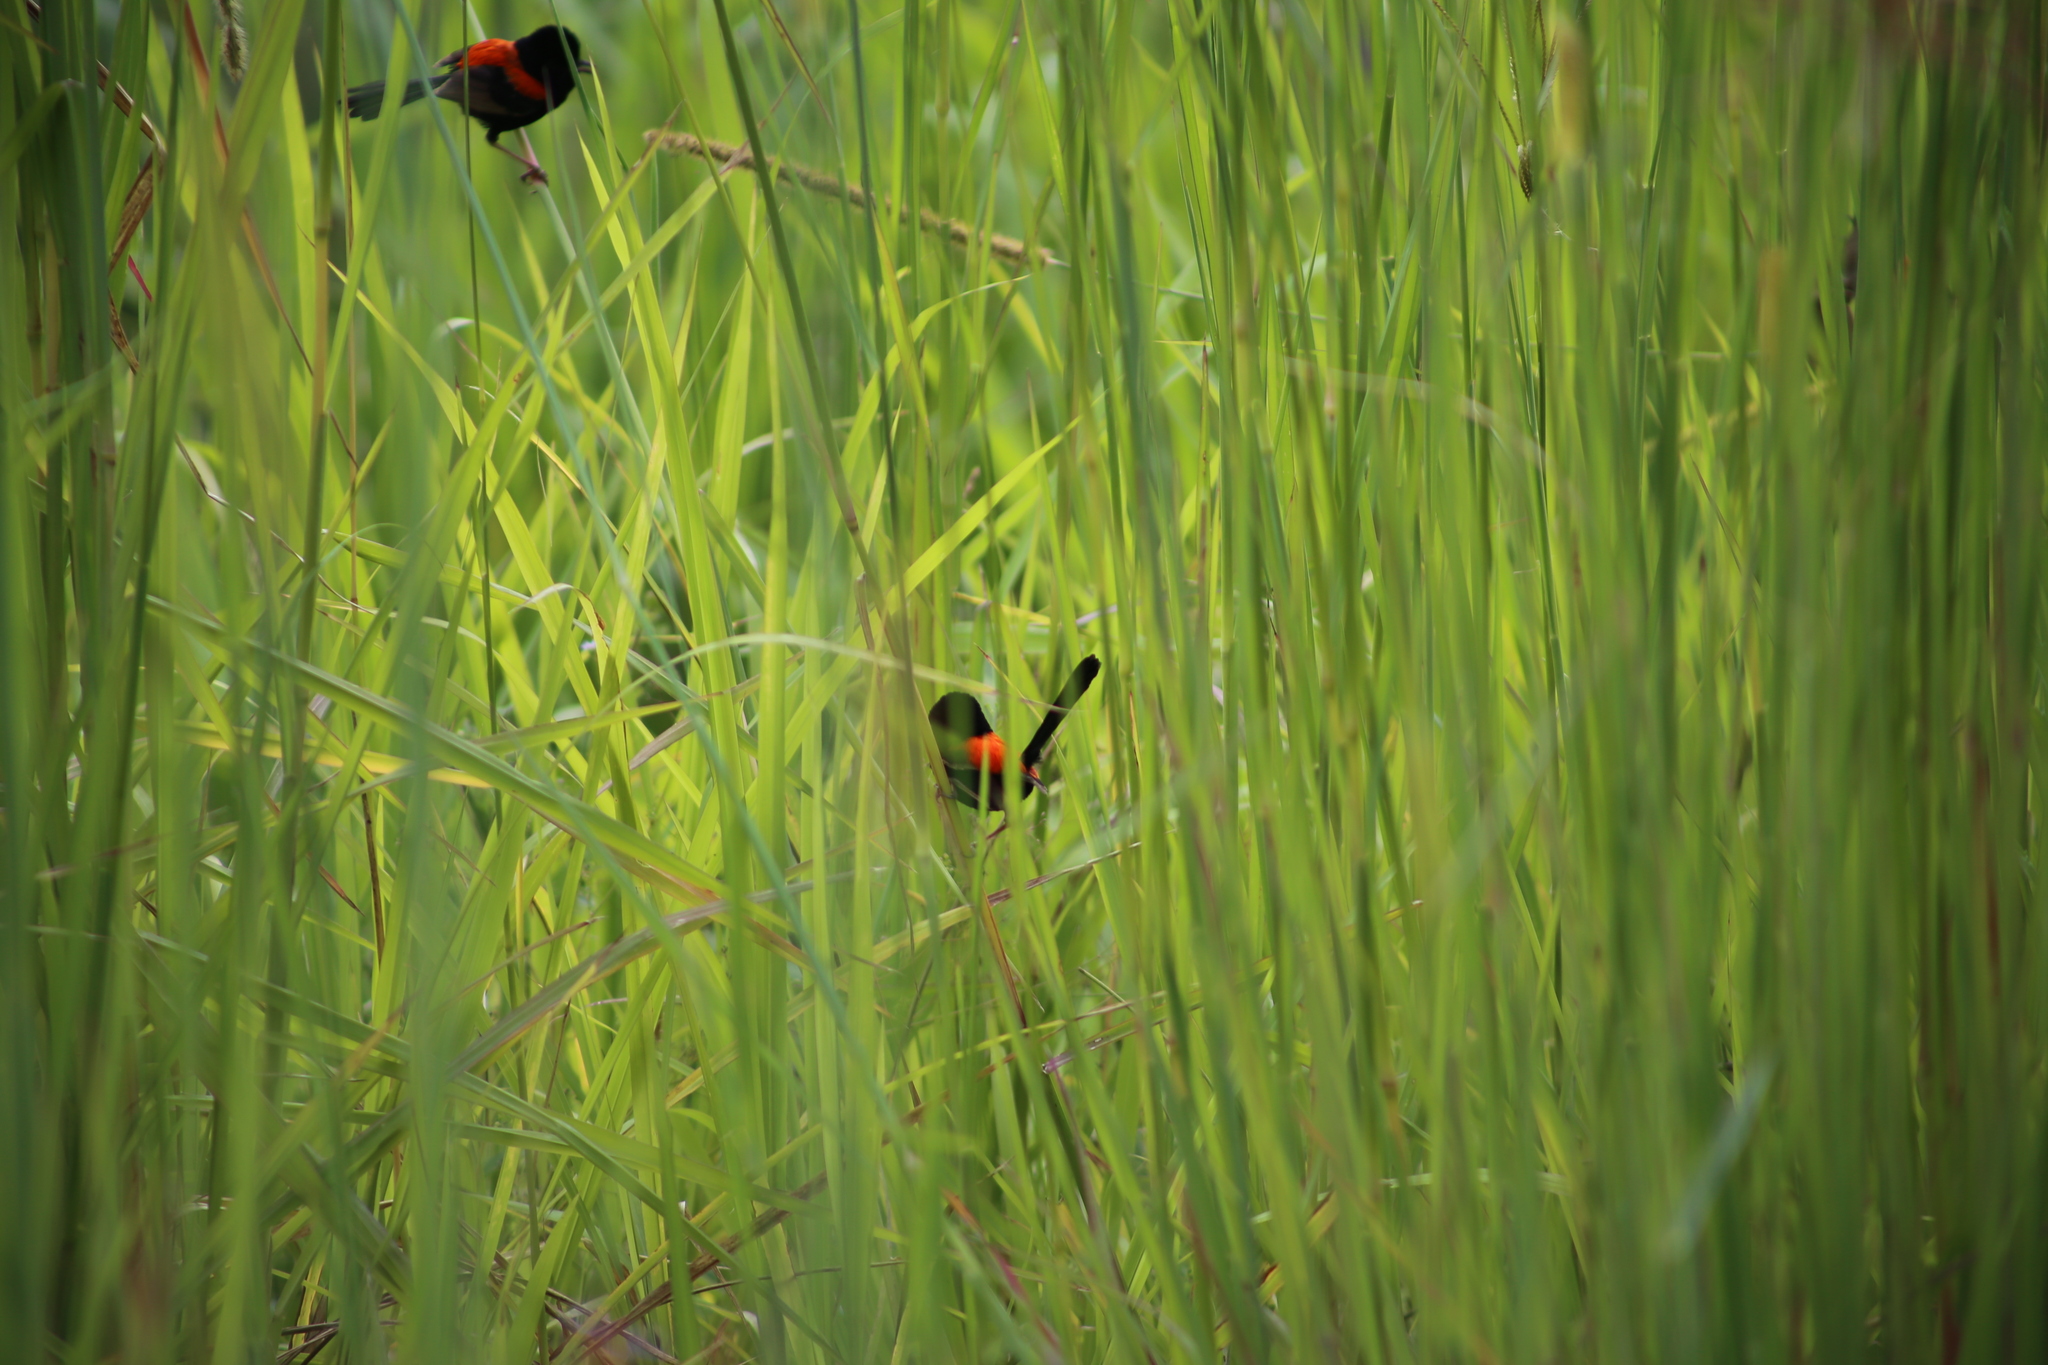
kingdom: Animalia
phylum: Chordata
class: Aves
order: Passeriformes
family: Maluridae
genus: Malurus
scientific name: Malurus melanocephalus
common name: Red-backed fairywren
